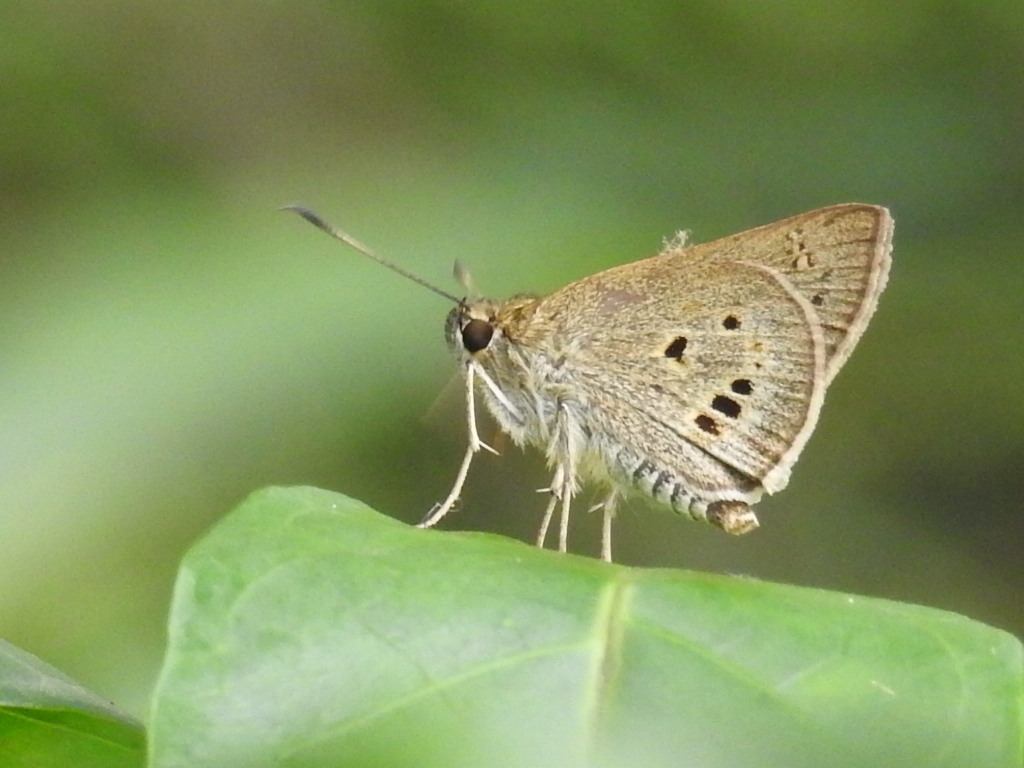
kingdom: Animalia
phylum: Arthropoda
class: Insecta
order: Lepidoptera
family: Hesperiidae
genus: Suastus
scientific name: Suastus gremius
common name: Indian palm bob
